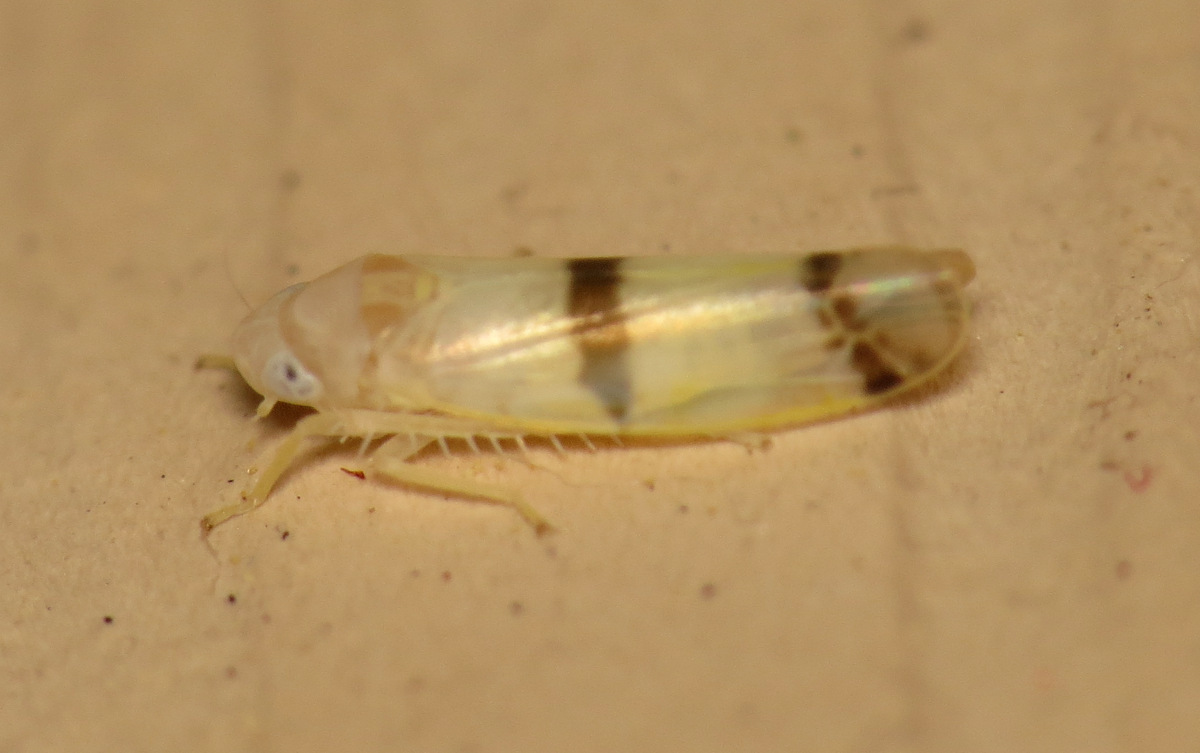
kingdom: Animalia
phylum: Arthropoda
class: Insecta
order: Hemiptera
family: Cicadellidae
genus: Empoa
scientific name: Empoa gillettei
